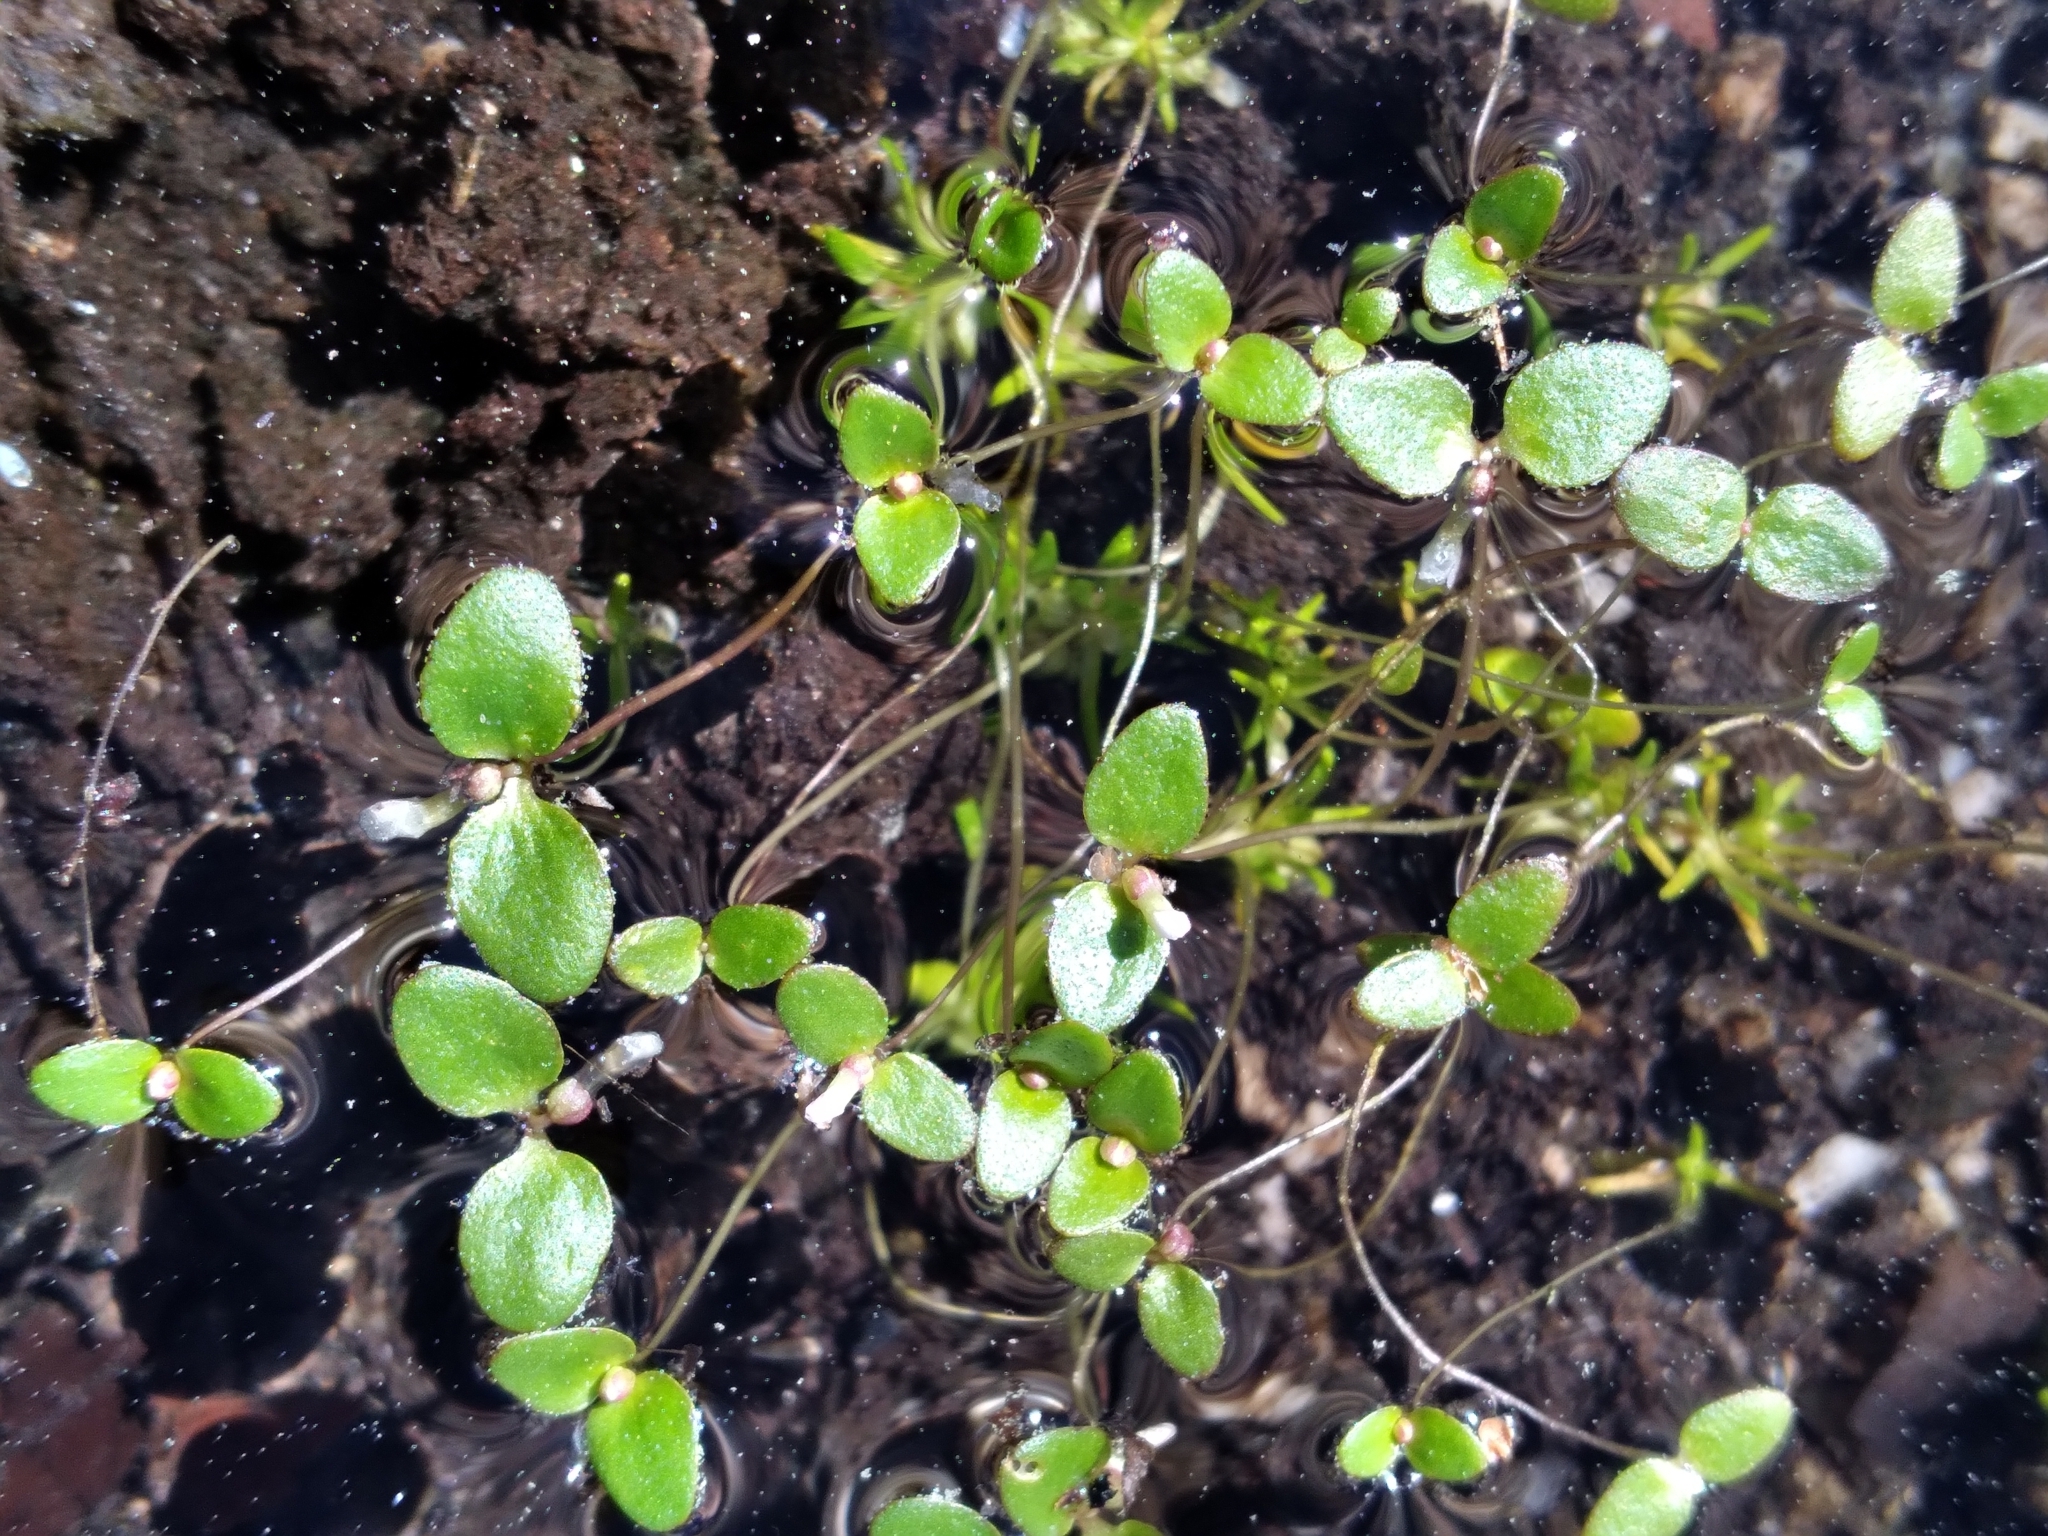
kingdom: Plantae
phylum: Tracheophyta
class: Magnoliopsida
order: Lamiales
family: Plantaginaceae
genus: Gratiola
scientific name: Gratiola amphiantha
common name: Little amphianthus
